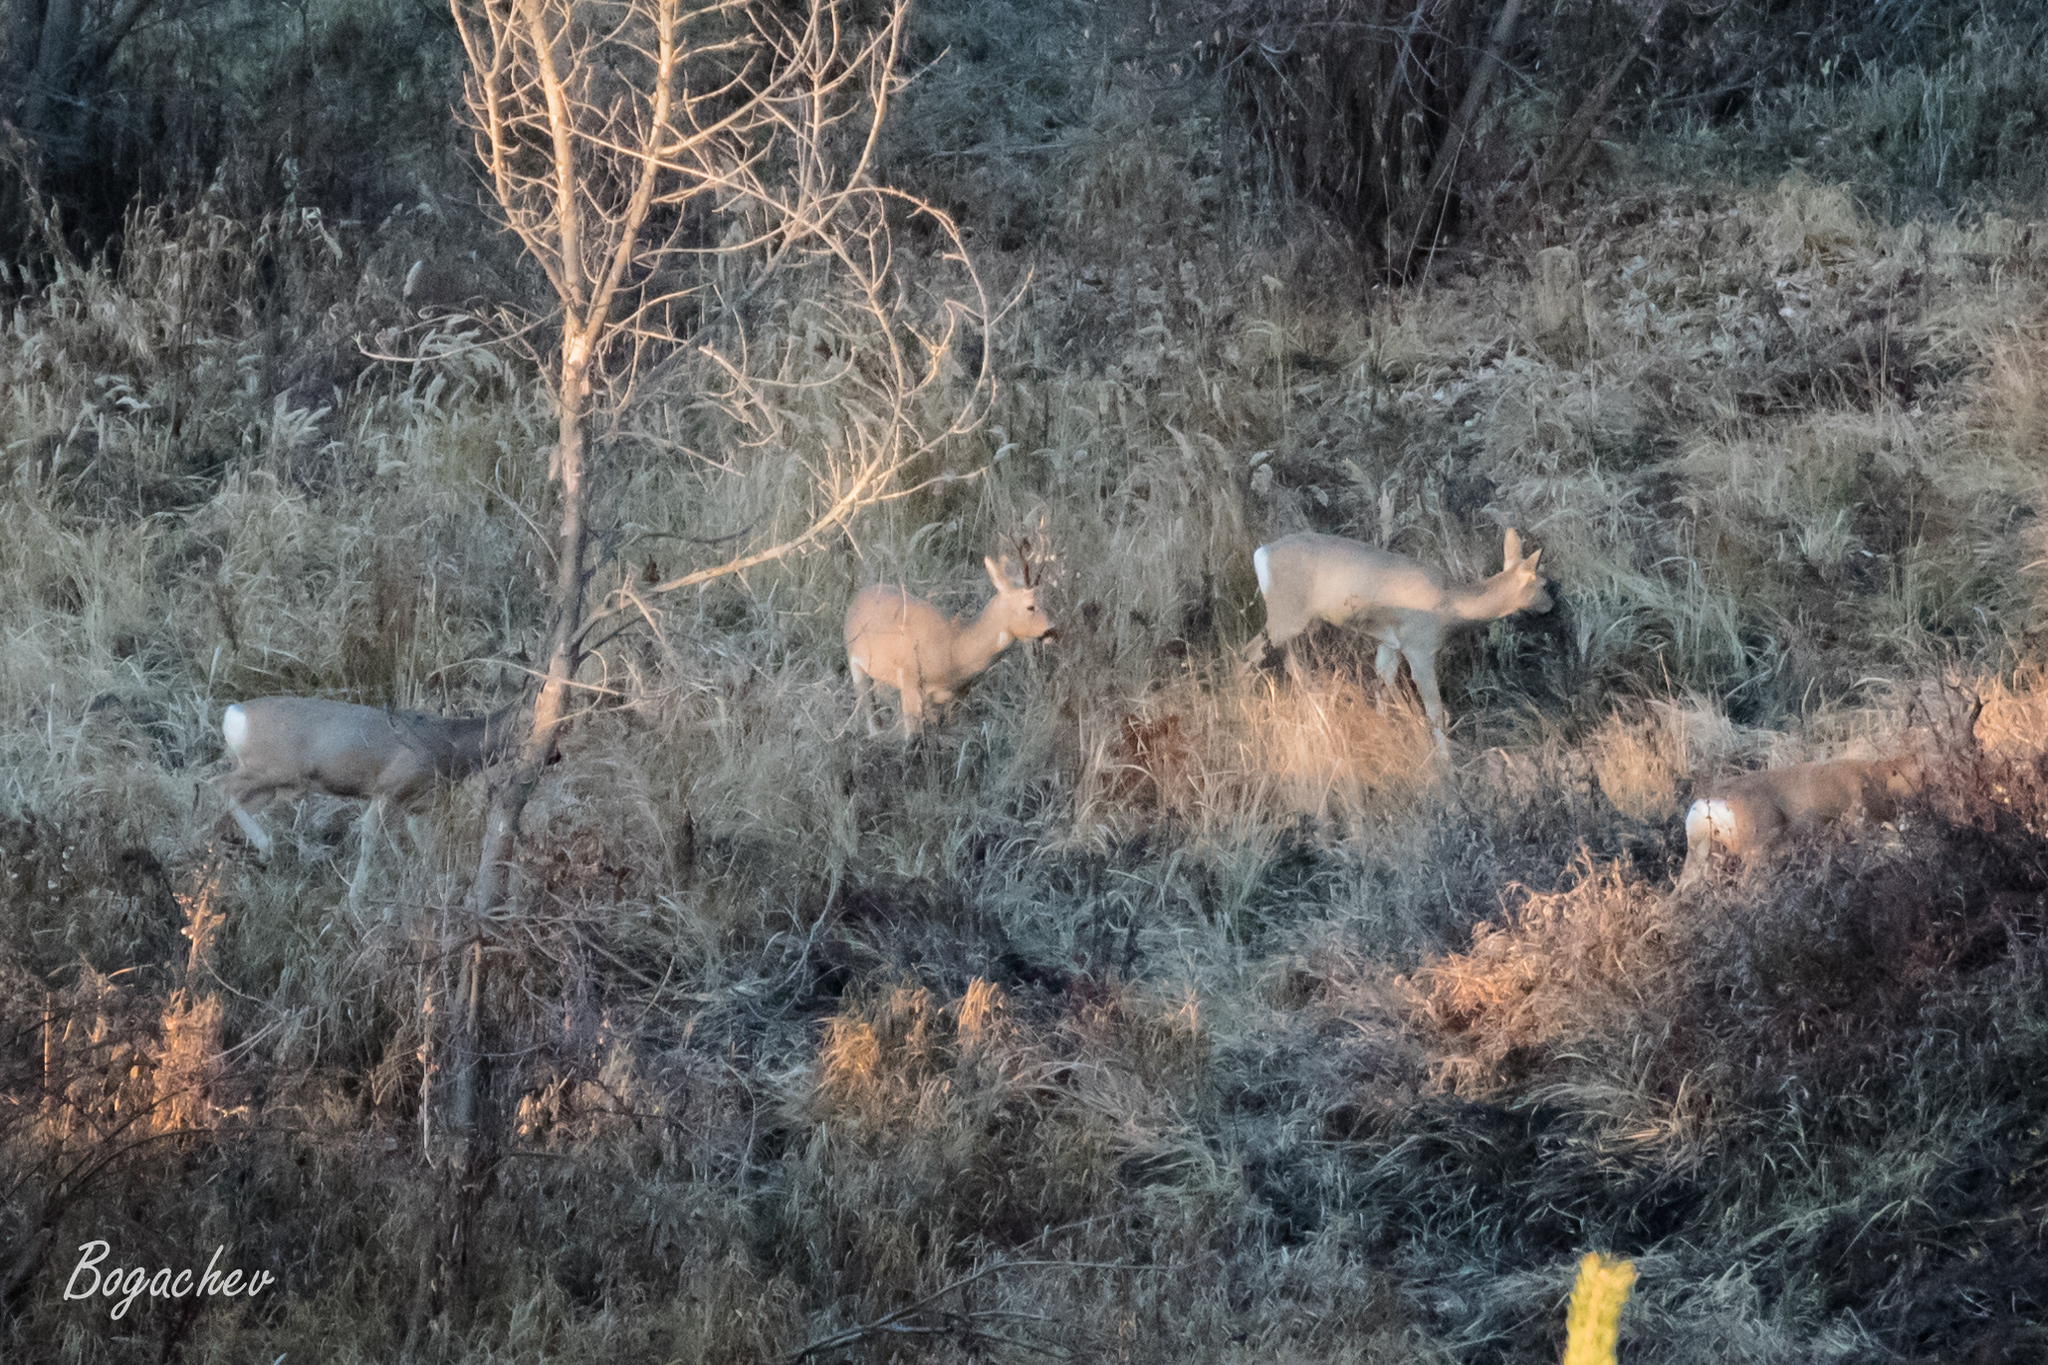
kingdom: Animalia
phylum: Chordata
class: Mammalia
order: Artiodactyla
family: Cervidae
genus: Capreolus
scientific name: Capreolus pygargus
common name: Siberian roe
